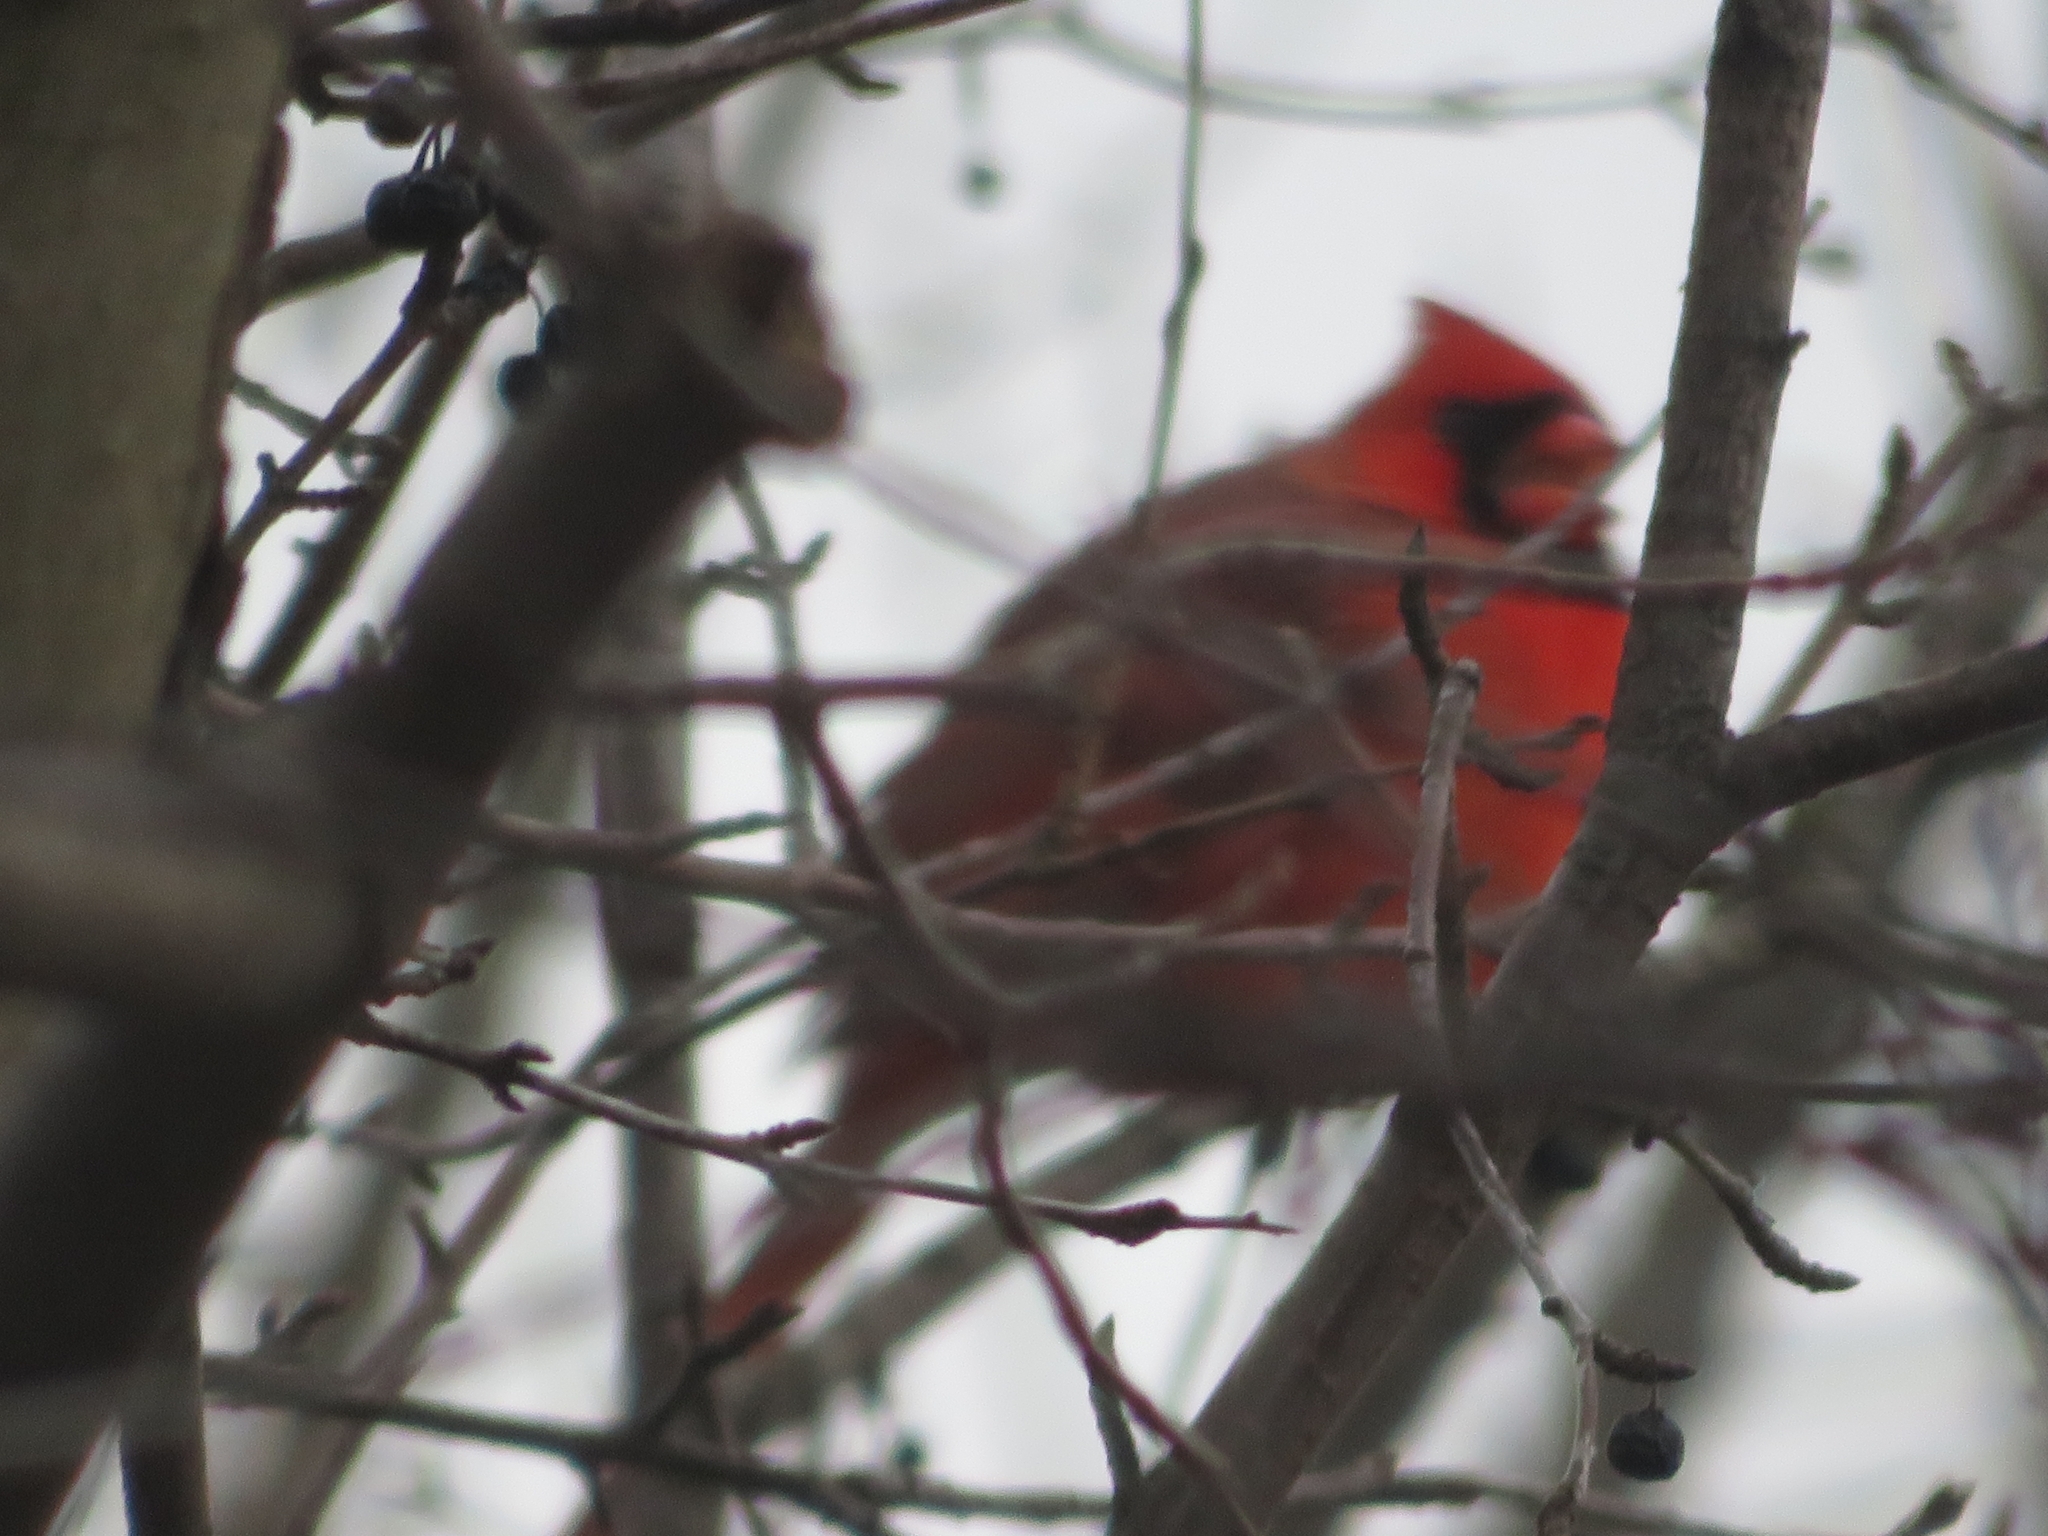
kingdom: Animalia
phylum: Chordata
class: Aves
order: Passeriformes
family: Cardinalidae
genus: Cardinalis
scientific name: Cardinalis cardinalis
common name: Northern cardinal
